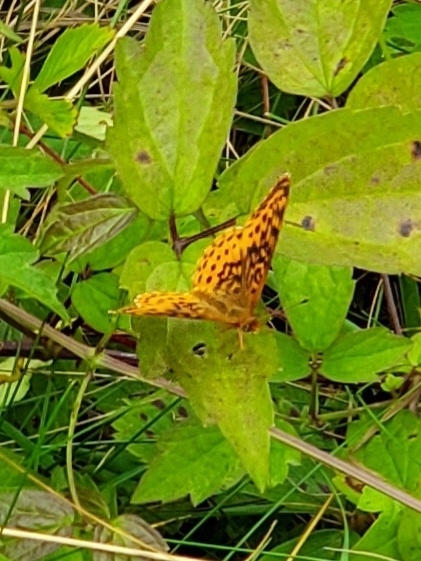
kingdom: Animalia
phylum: Arthropoda
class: Insecta
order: Lepidoptera
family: Nymphalidae
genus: Clossiana
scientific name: Clossiana toddi
